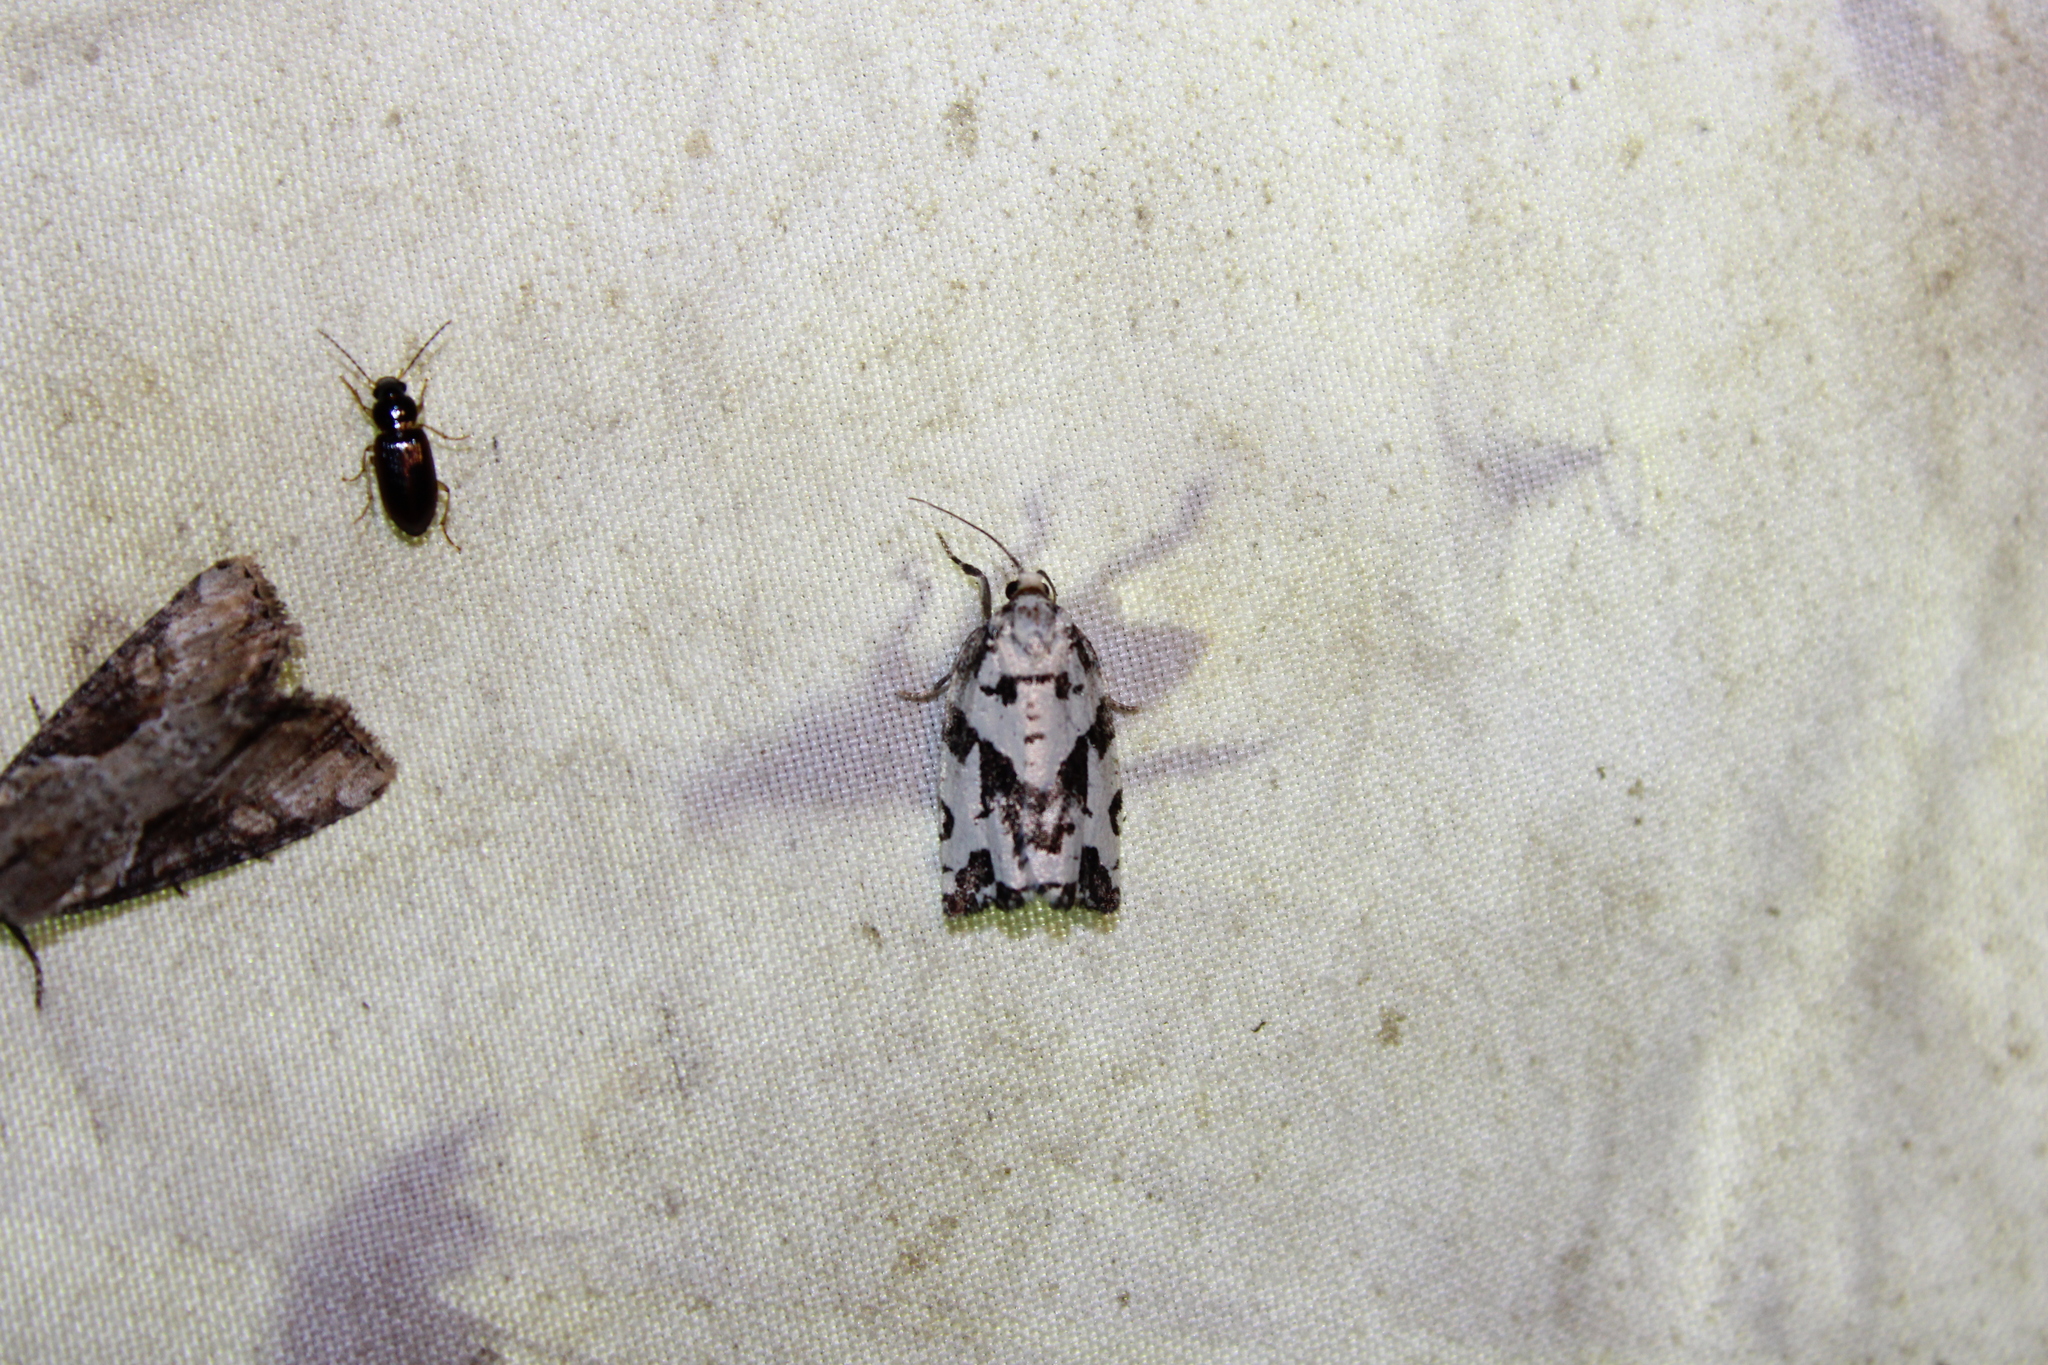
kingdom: Animalia
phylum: Arthropoda
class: Insecta
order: Lepidoptera
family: Tortricidae
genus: Archips
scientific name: Archips dissitana
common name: Boldly-marked archips moth
